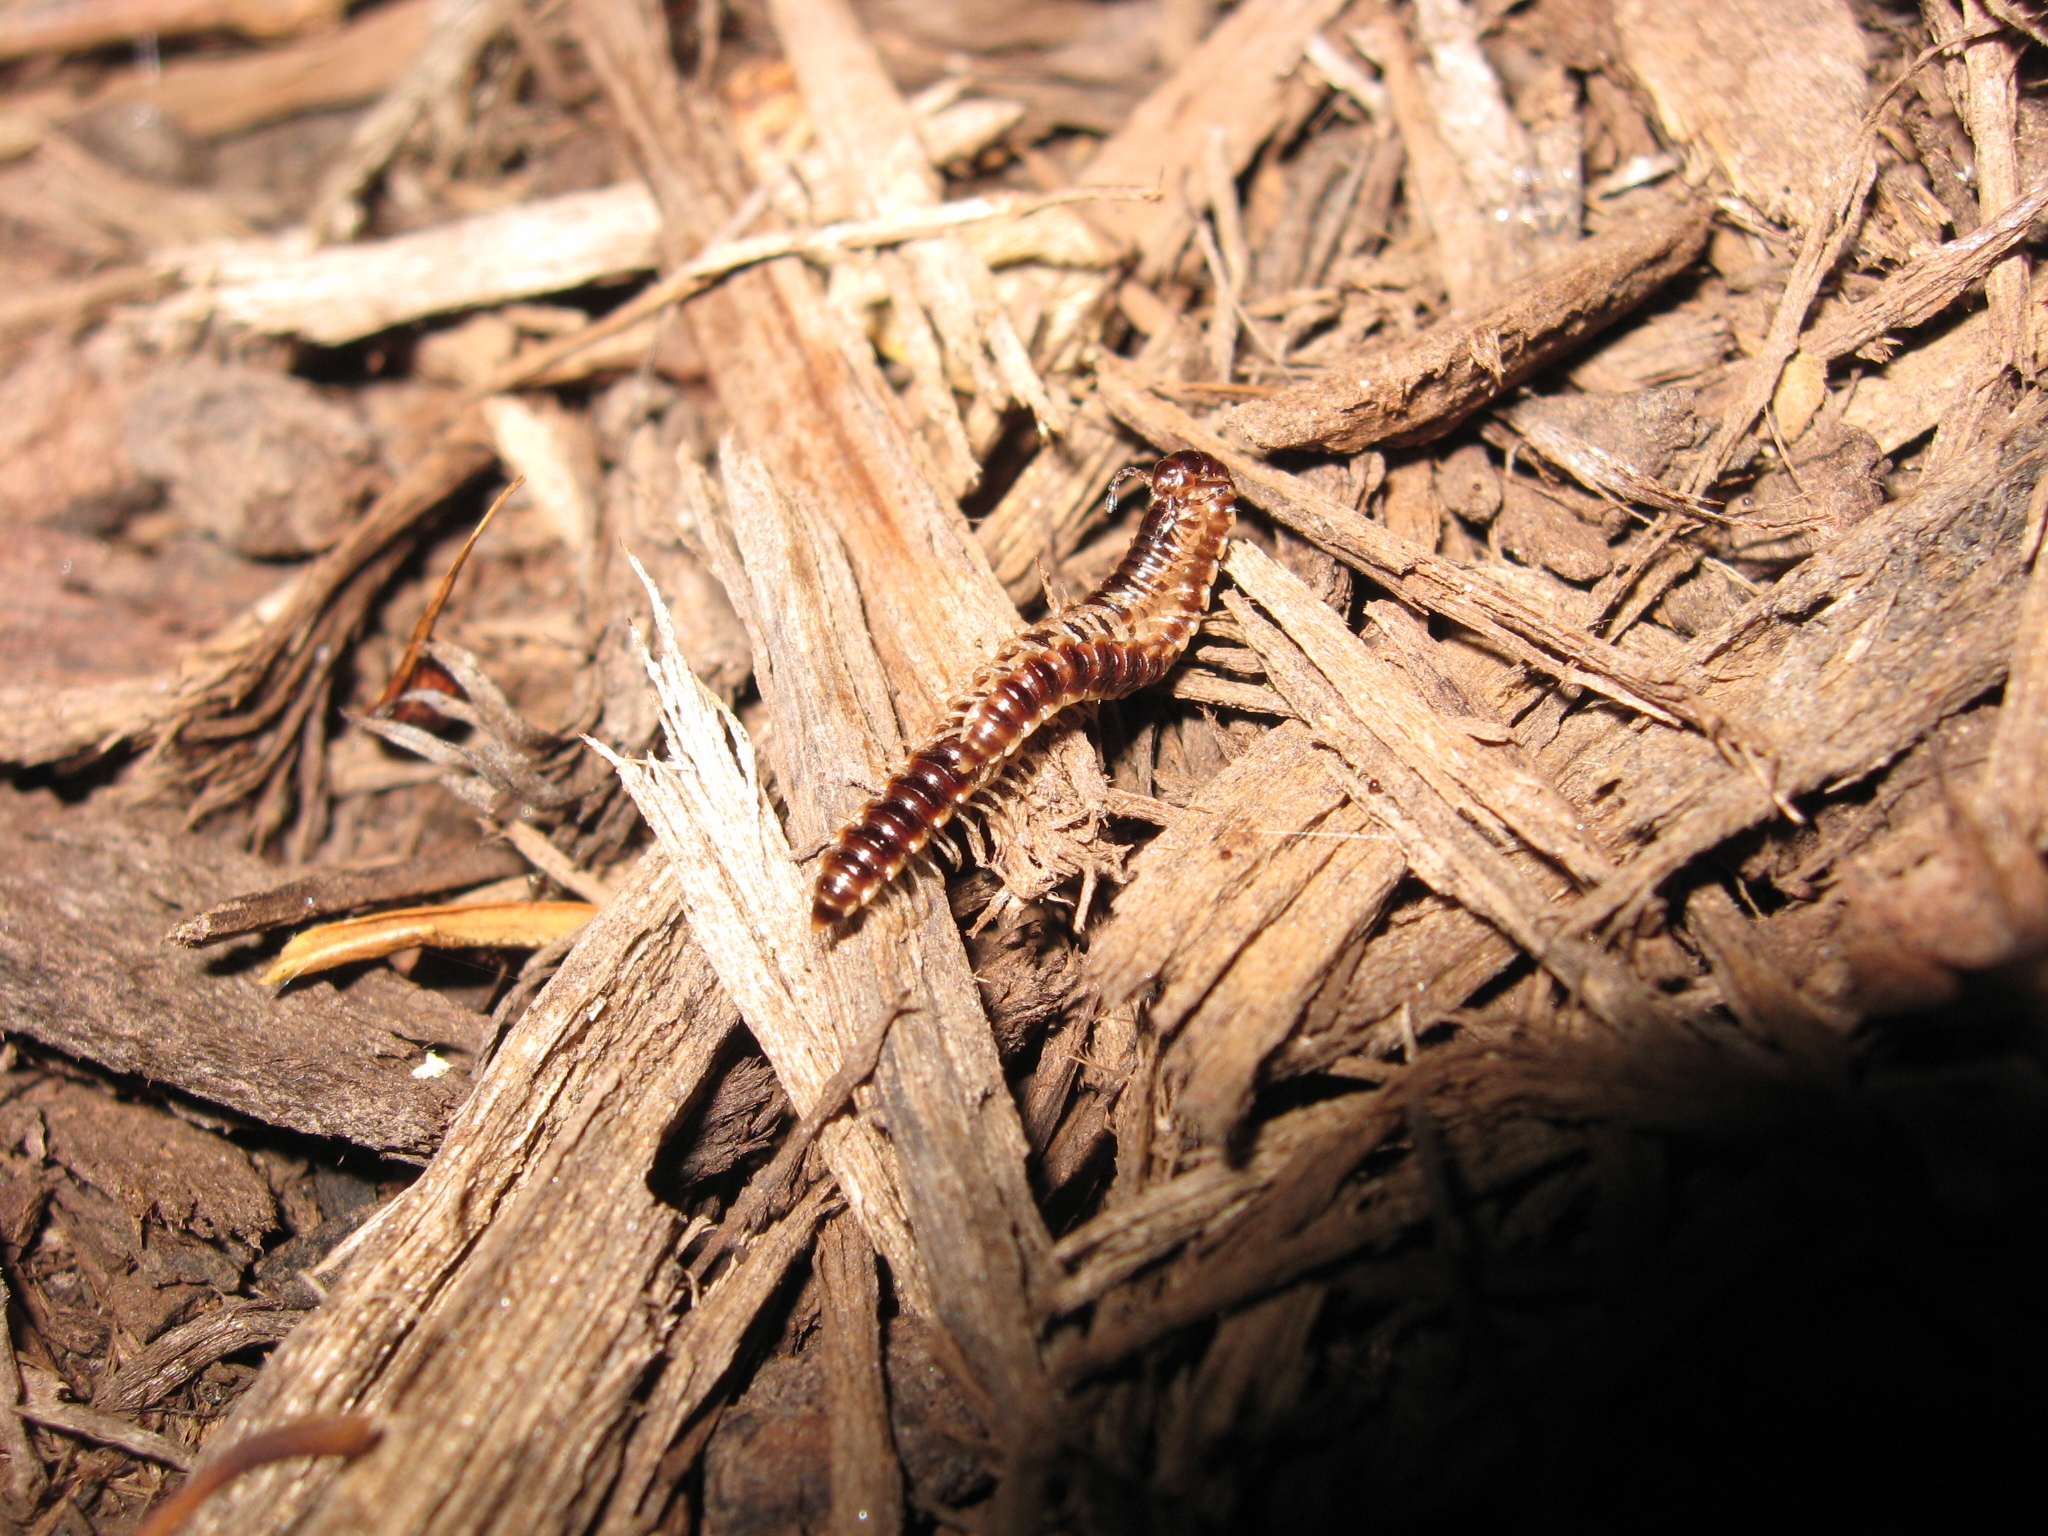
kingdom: Animalia
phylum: Arthropoda
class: Diplopoda
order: Polydesmida
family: Paradoxosomatidae
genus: Oxidus
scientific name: Oxidus gracilis
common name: Greenhouse millipede
